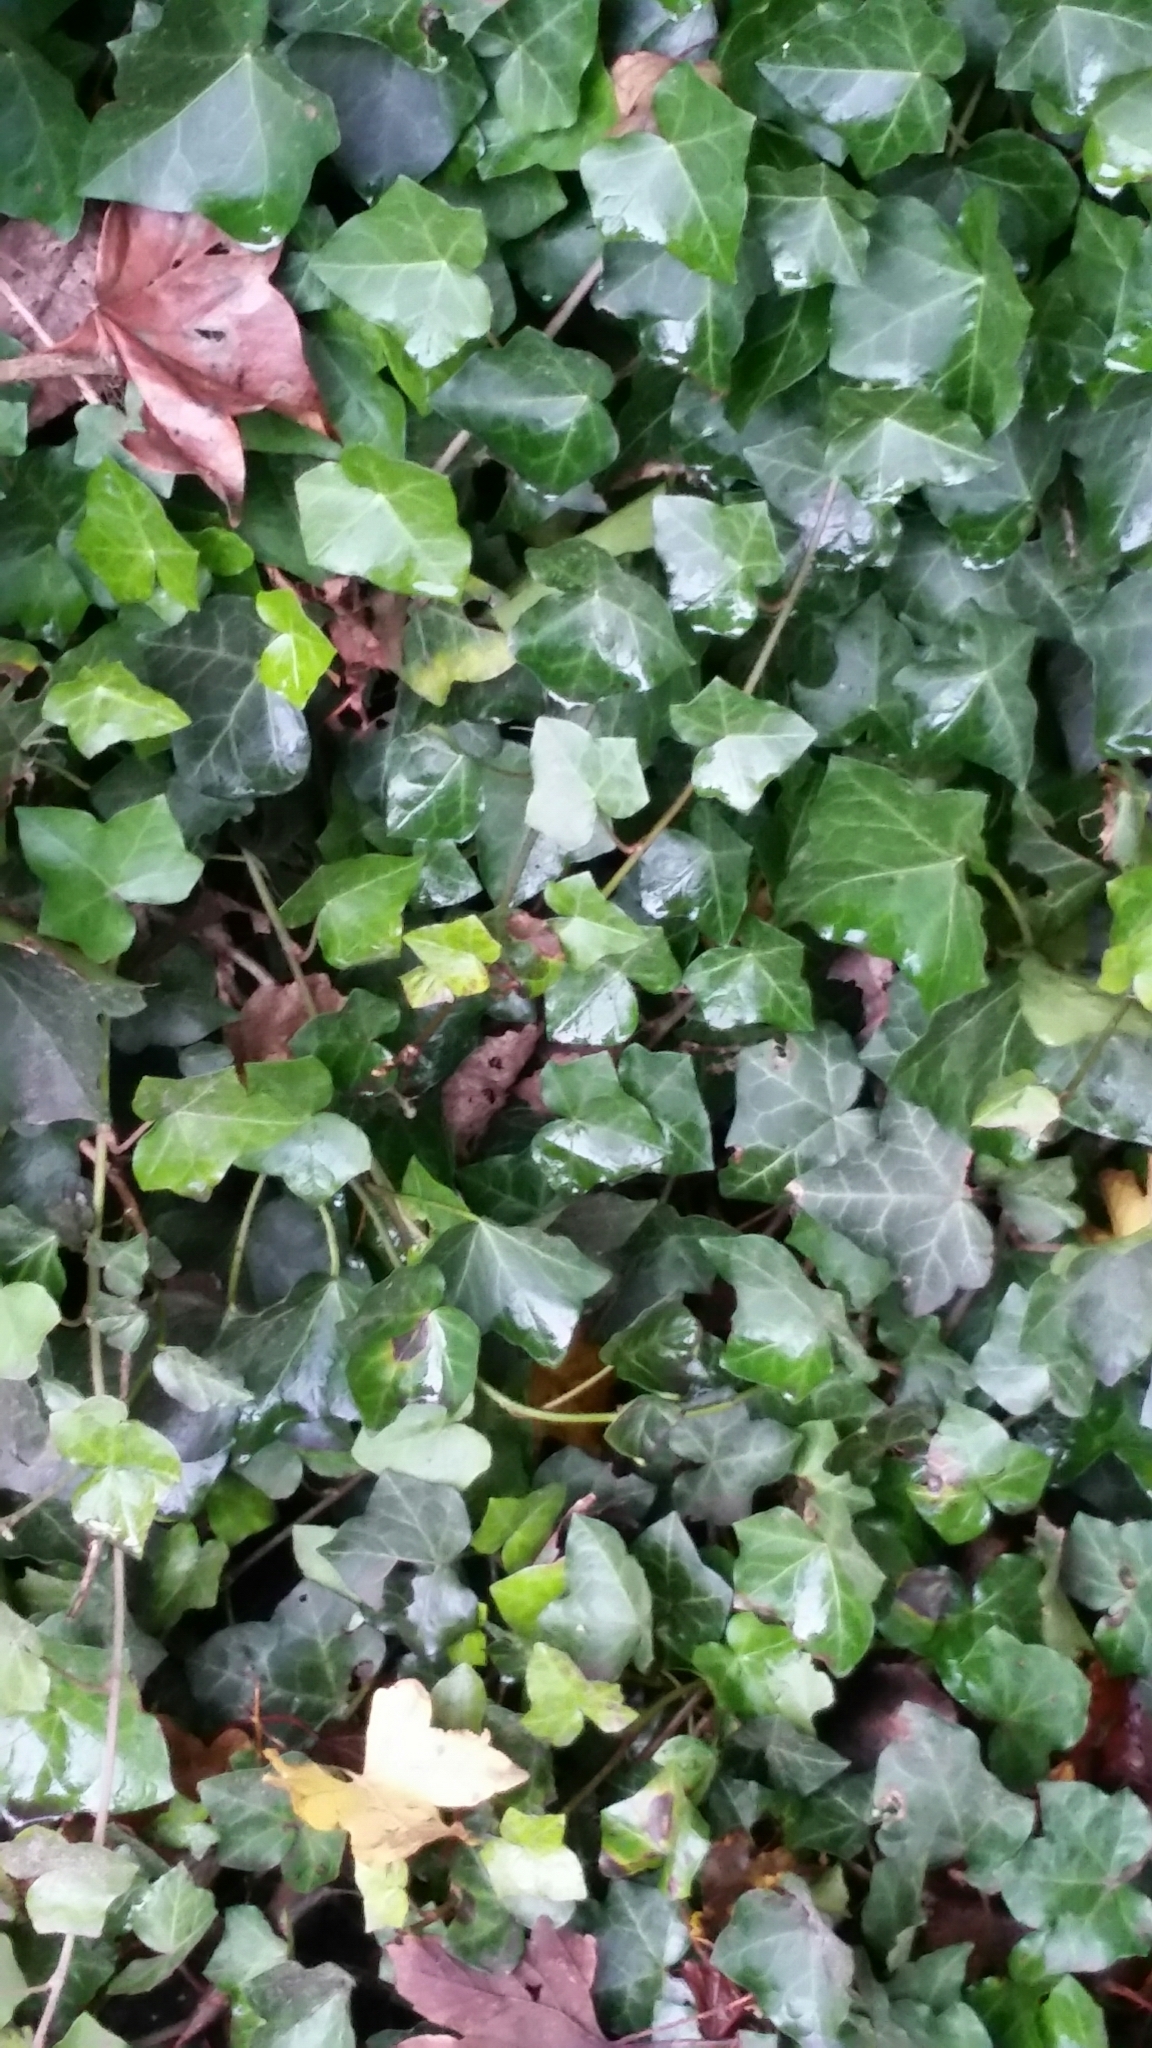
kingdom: Plantae
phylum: Tracheophyta
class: Magnoliopsida
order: Apiales
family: Araliaceae
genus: Hedera
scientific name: Hedera helix
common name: Ivy
